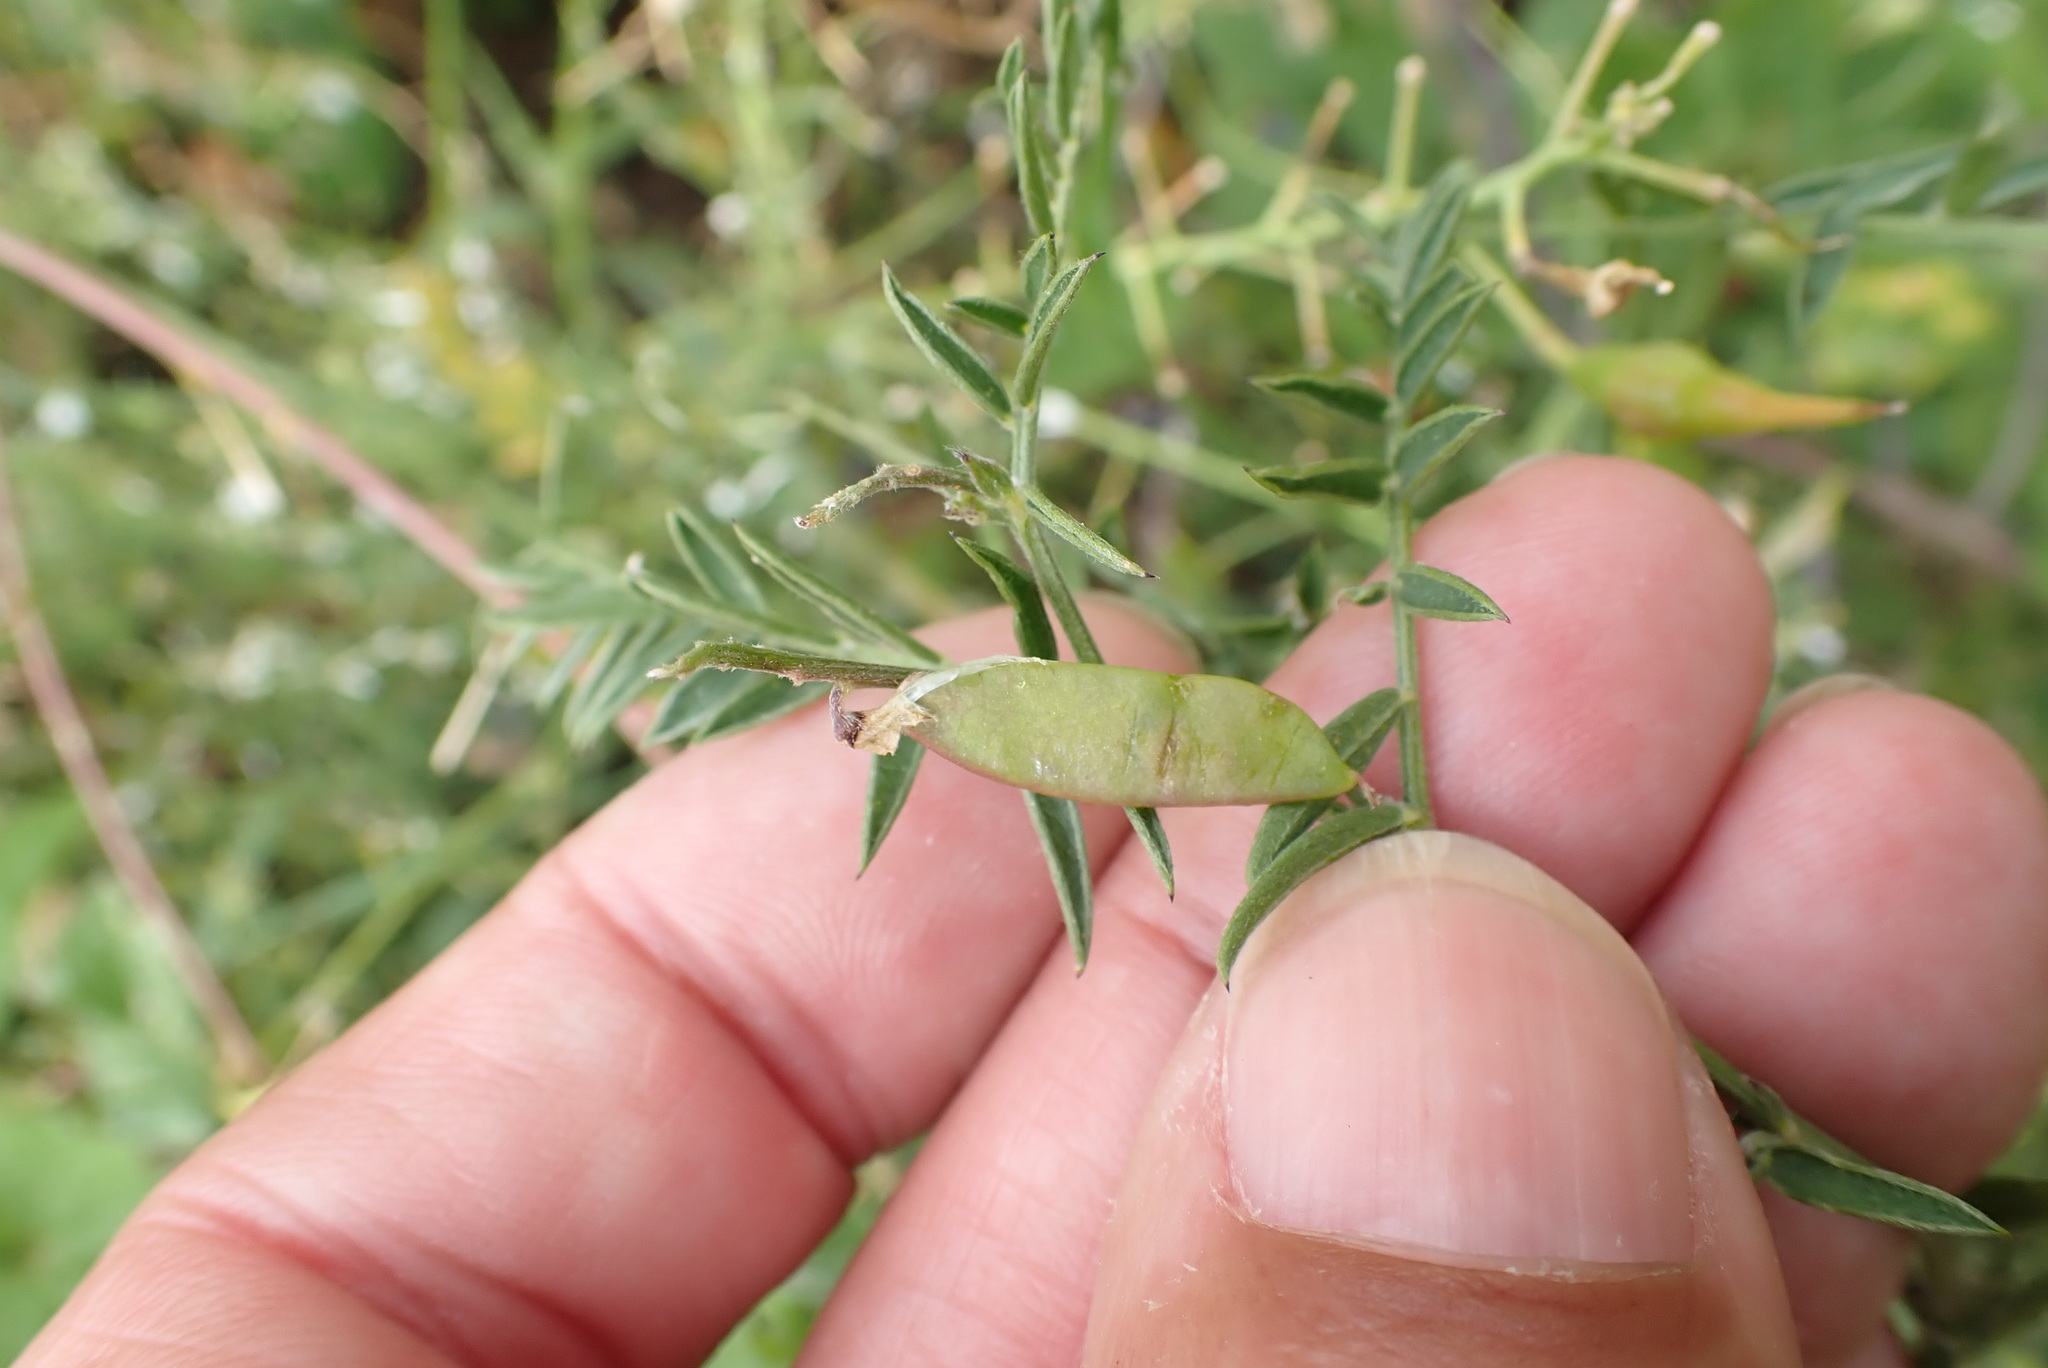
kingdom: Plantae
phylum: Tracheophyta
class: Magnoliopsida
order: Fabales
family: Fabaceae
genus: Vicia
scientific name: Vicia sativa
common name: Garden vetch
